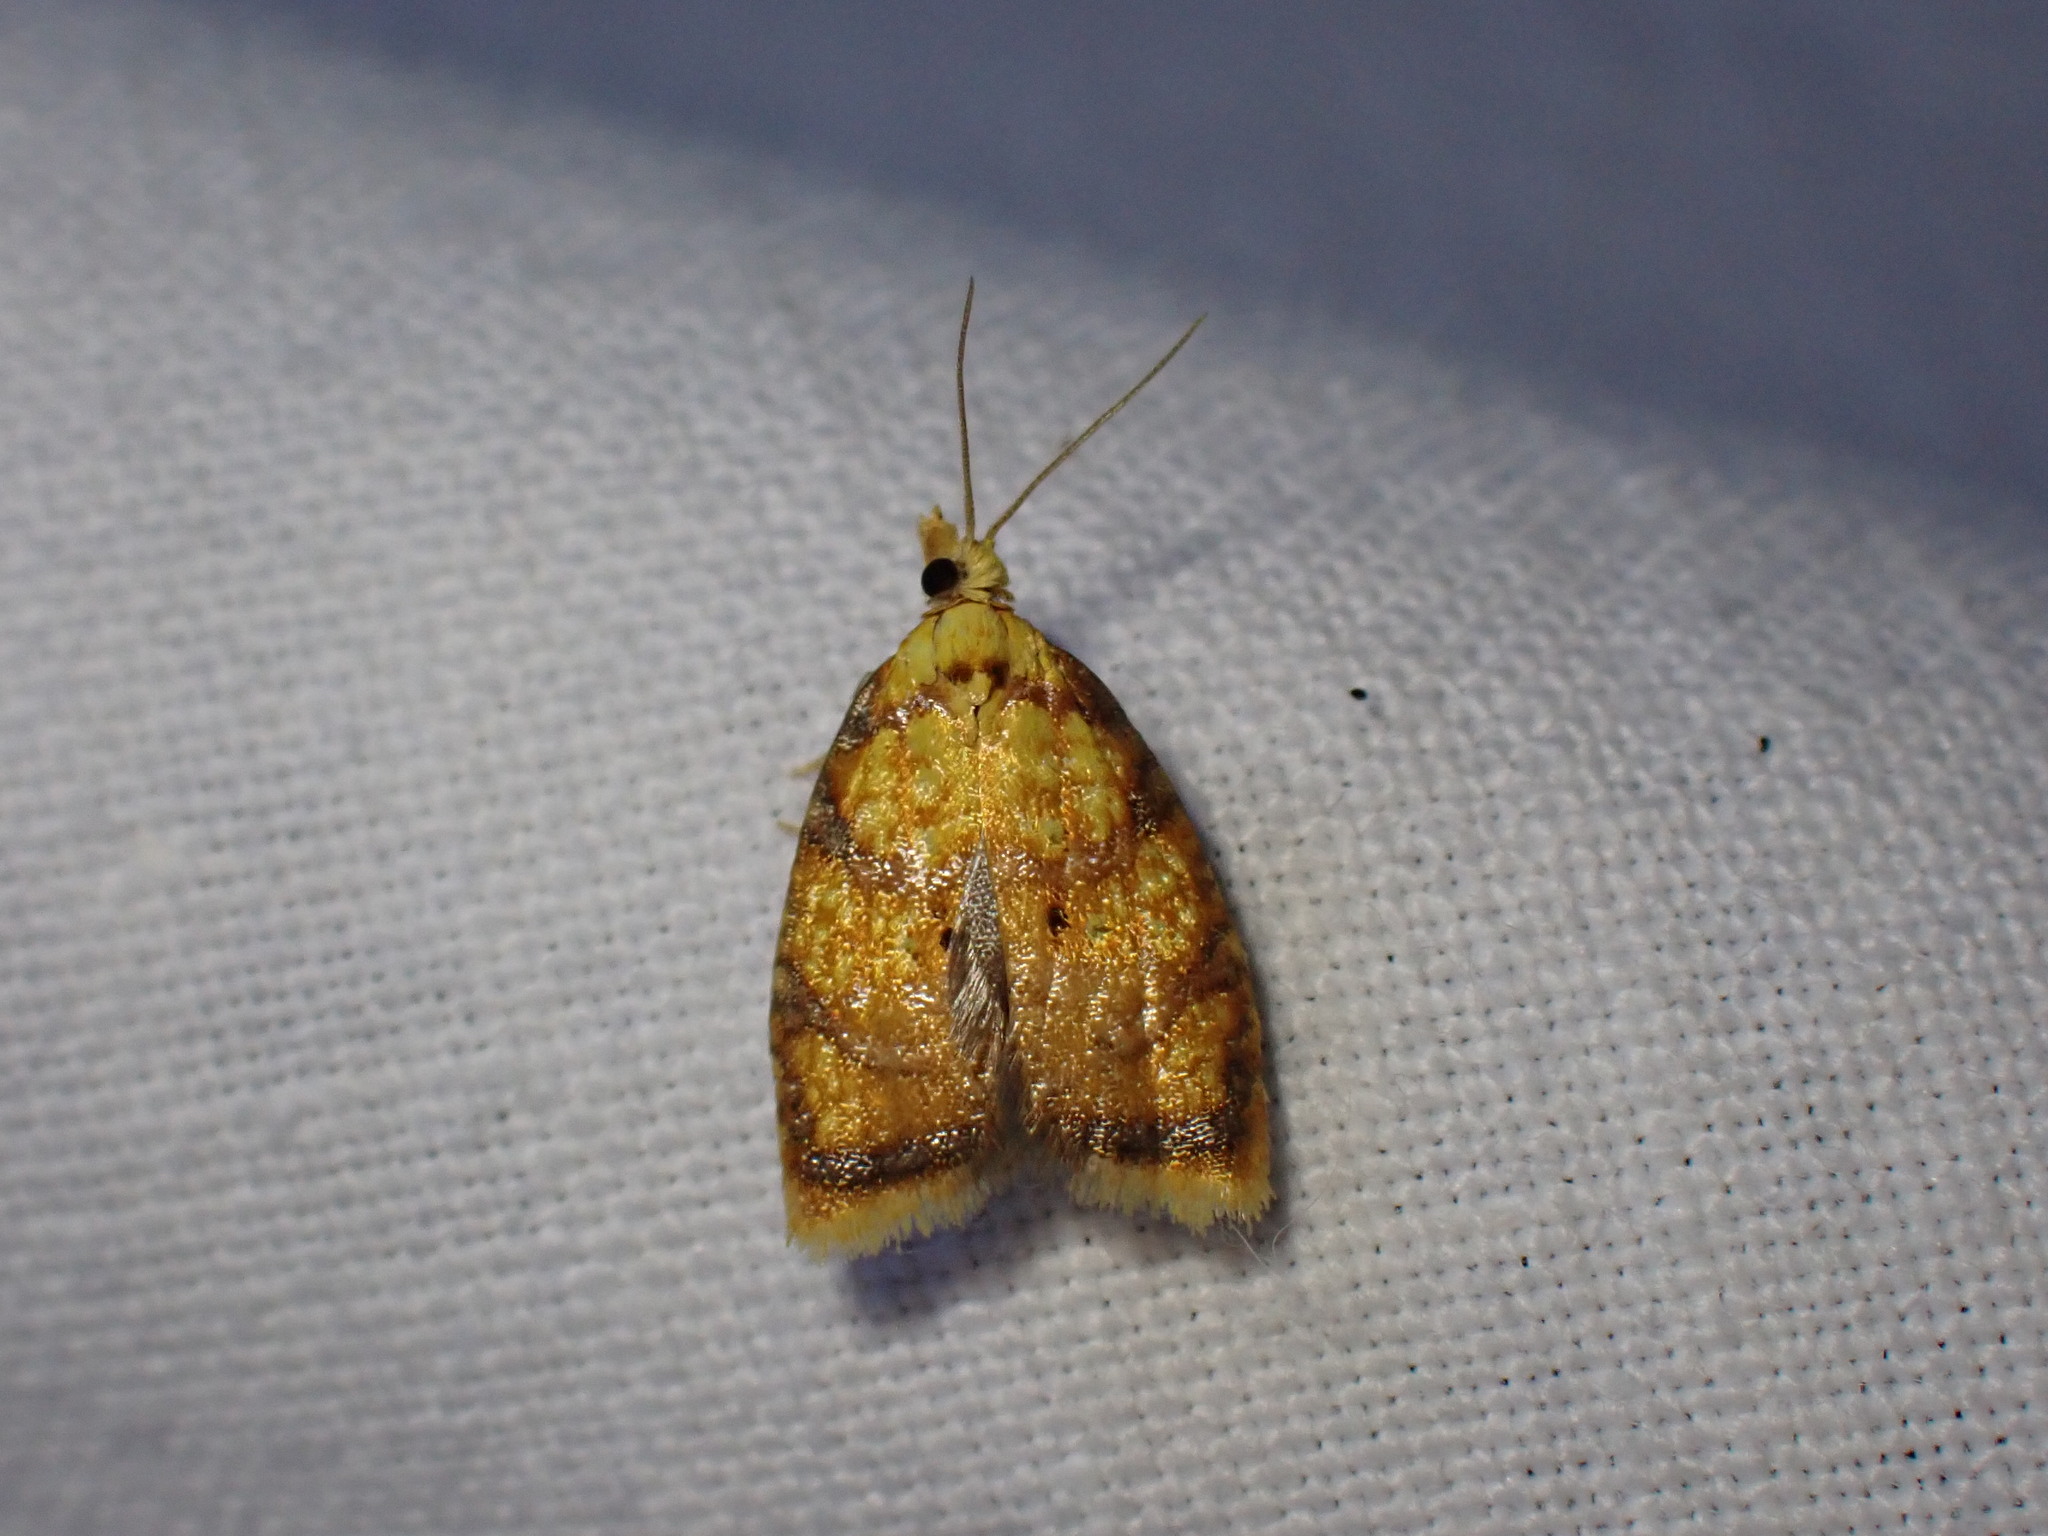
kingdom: Animalia
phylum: Arthropoda
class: Insecta
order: Lepidoptera
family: Tortricidae
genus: Acleris
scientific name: Acleris bergmanniana
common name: Yellow rose button
